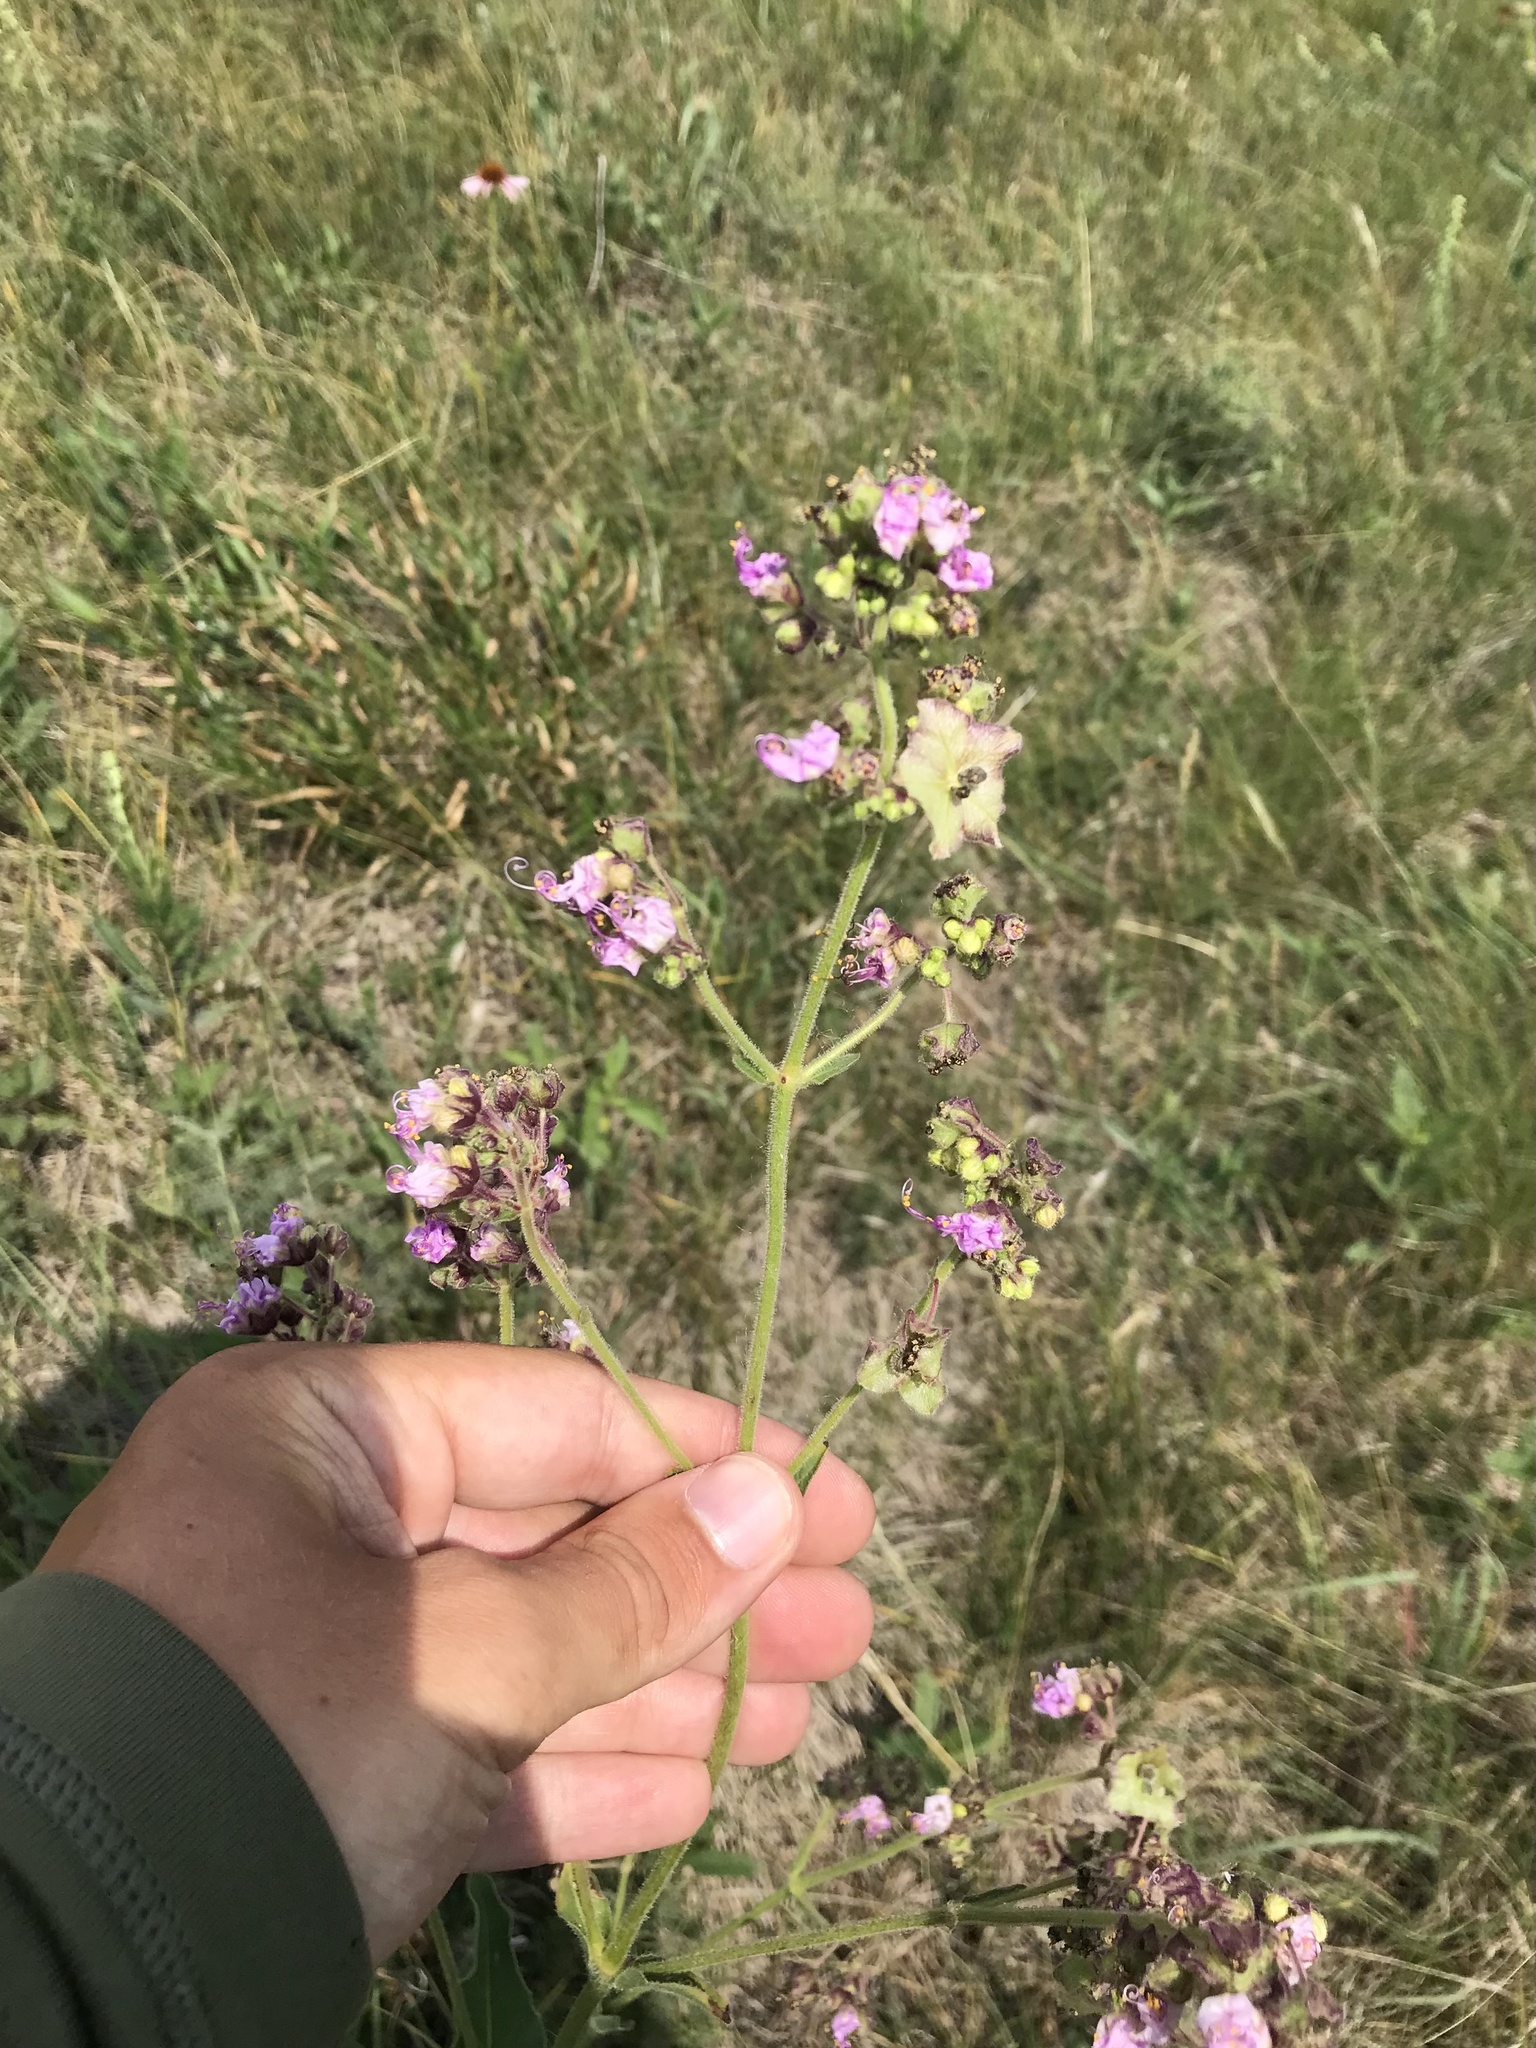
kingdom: Plantae
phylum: Tracheophyta
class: Magnoliopsida
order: Caryophyllales
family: Nyctaginaceae
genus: Mirabilis
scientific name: Mirabilis albida
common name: Hairy four-o'clock
